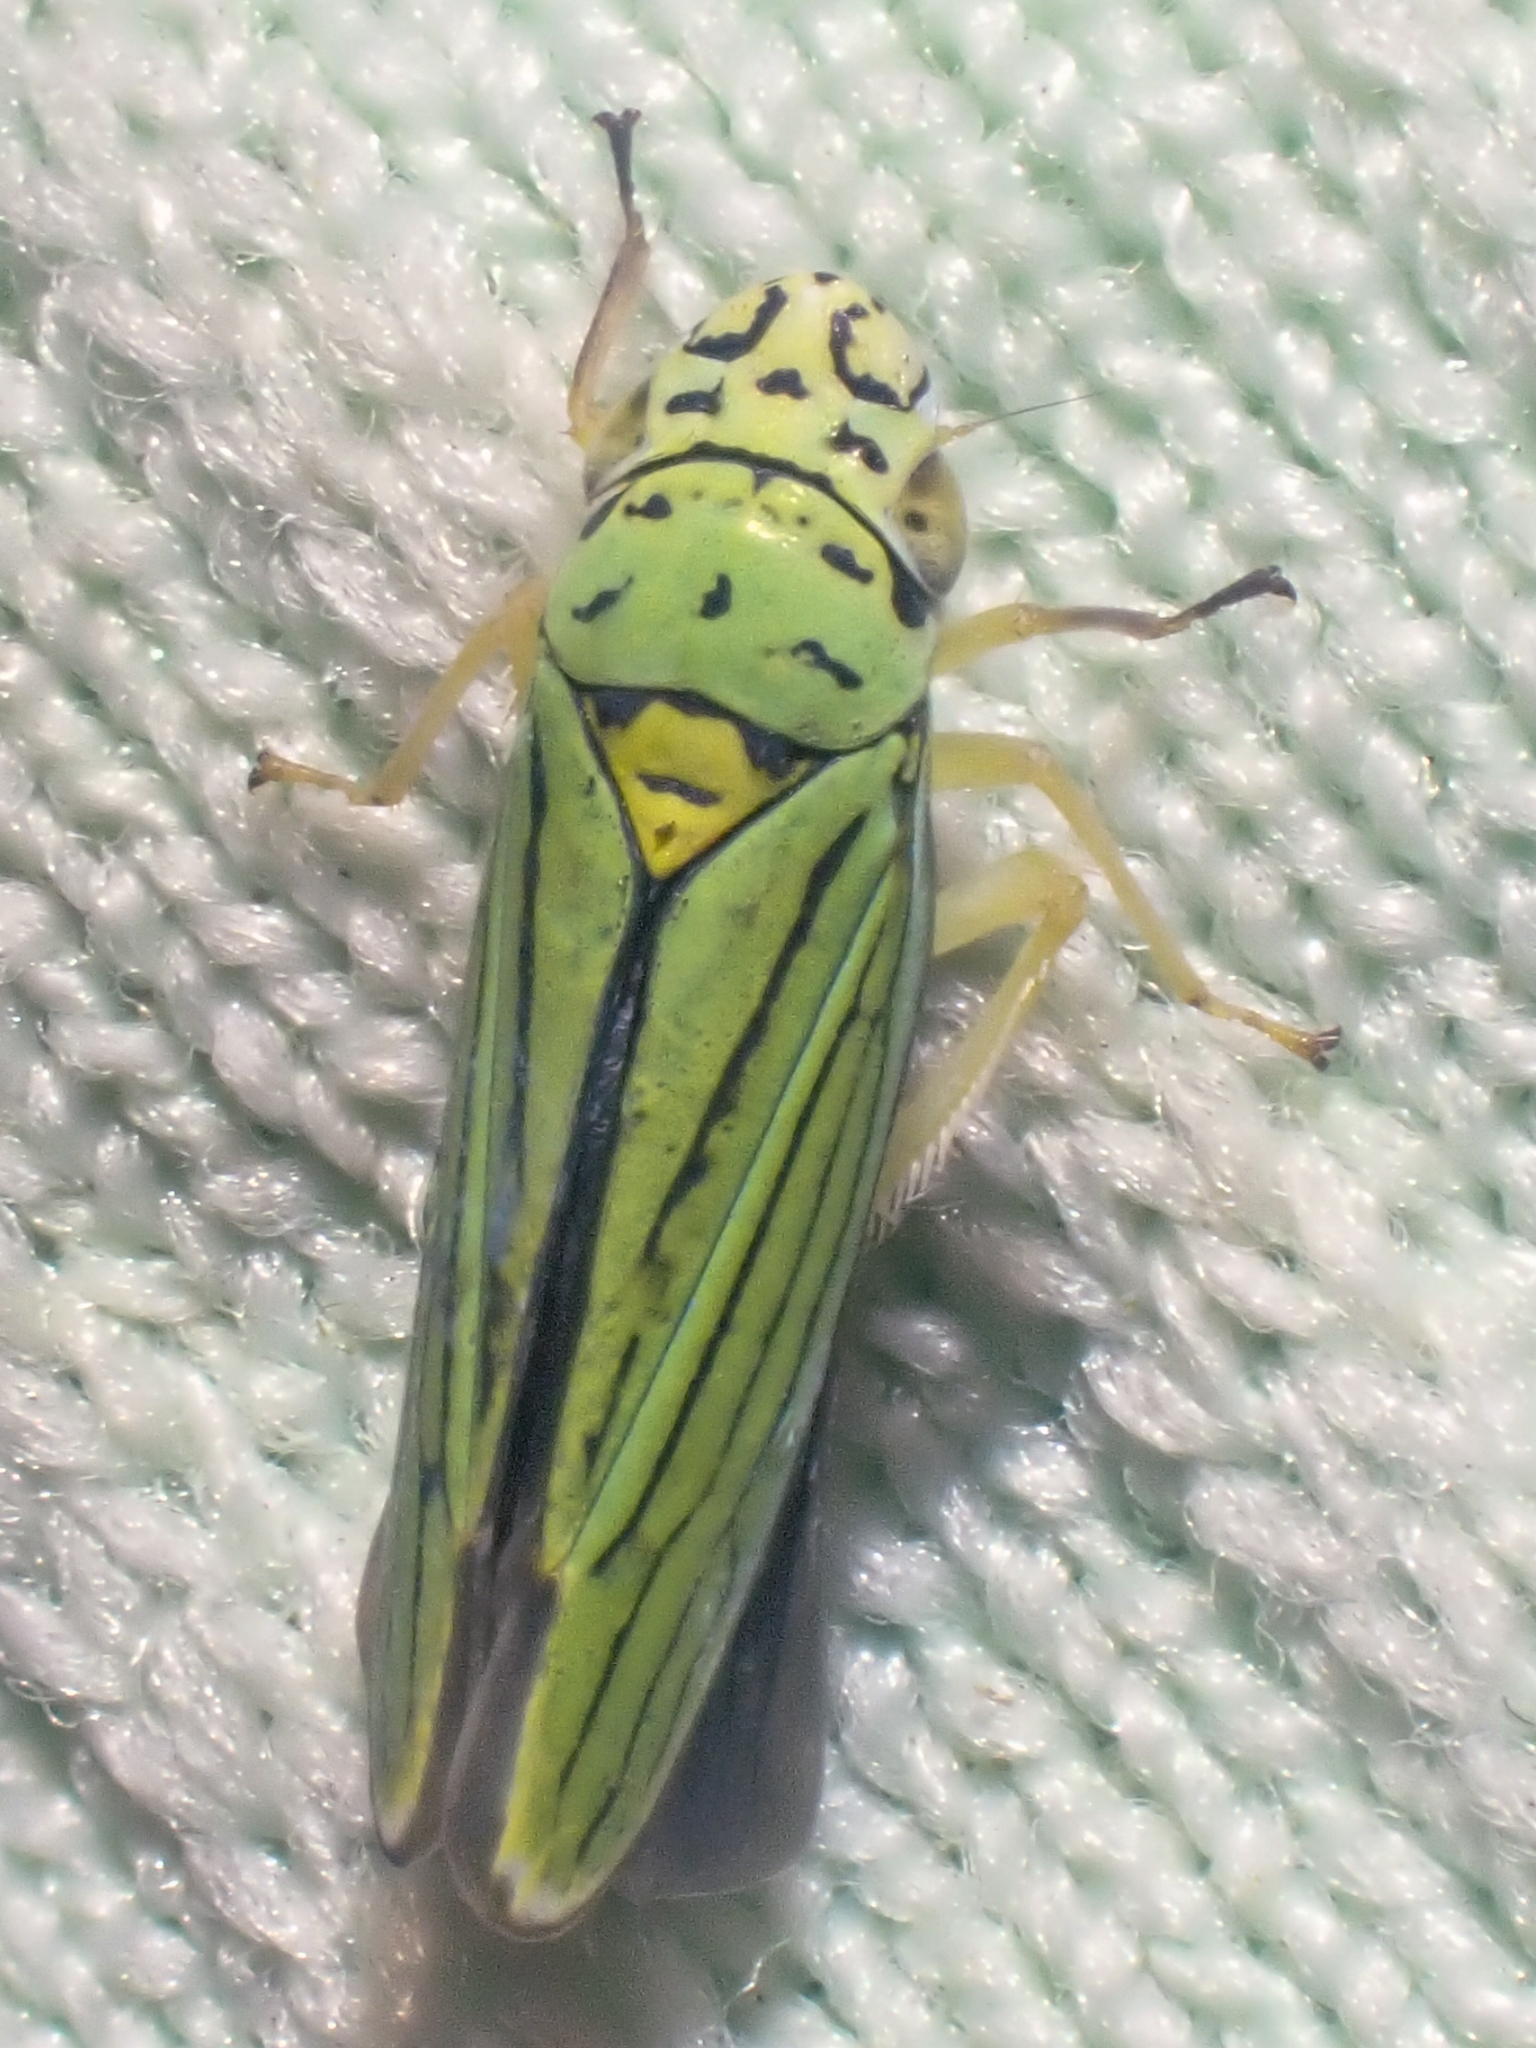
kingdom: Animalia
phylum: Arthropoda
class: Insecta
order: Hemiptera
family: Cicadellidae
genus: Graphocephala
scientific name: Graphocephala atropunctata
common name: Blue-green sharpshooter
